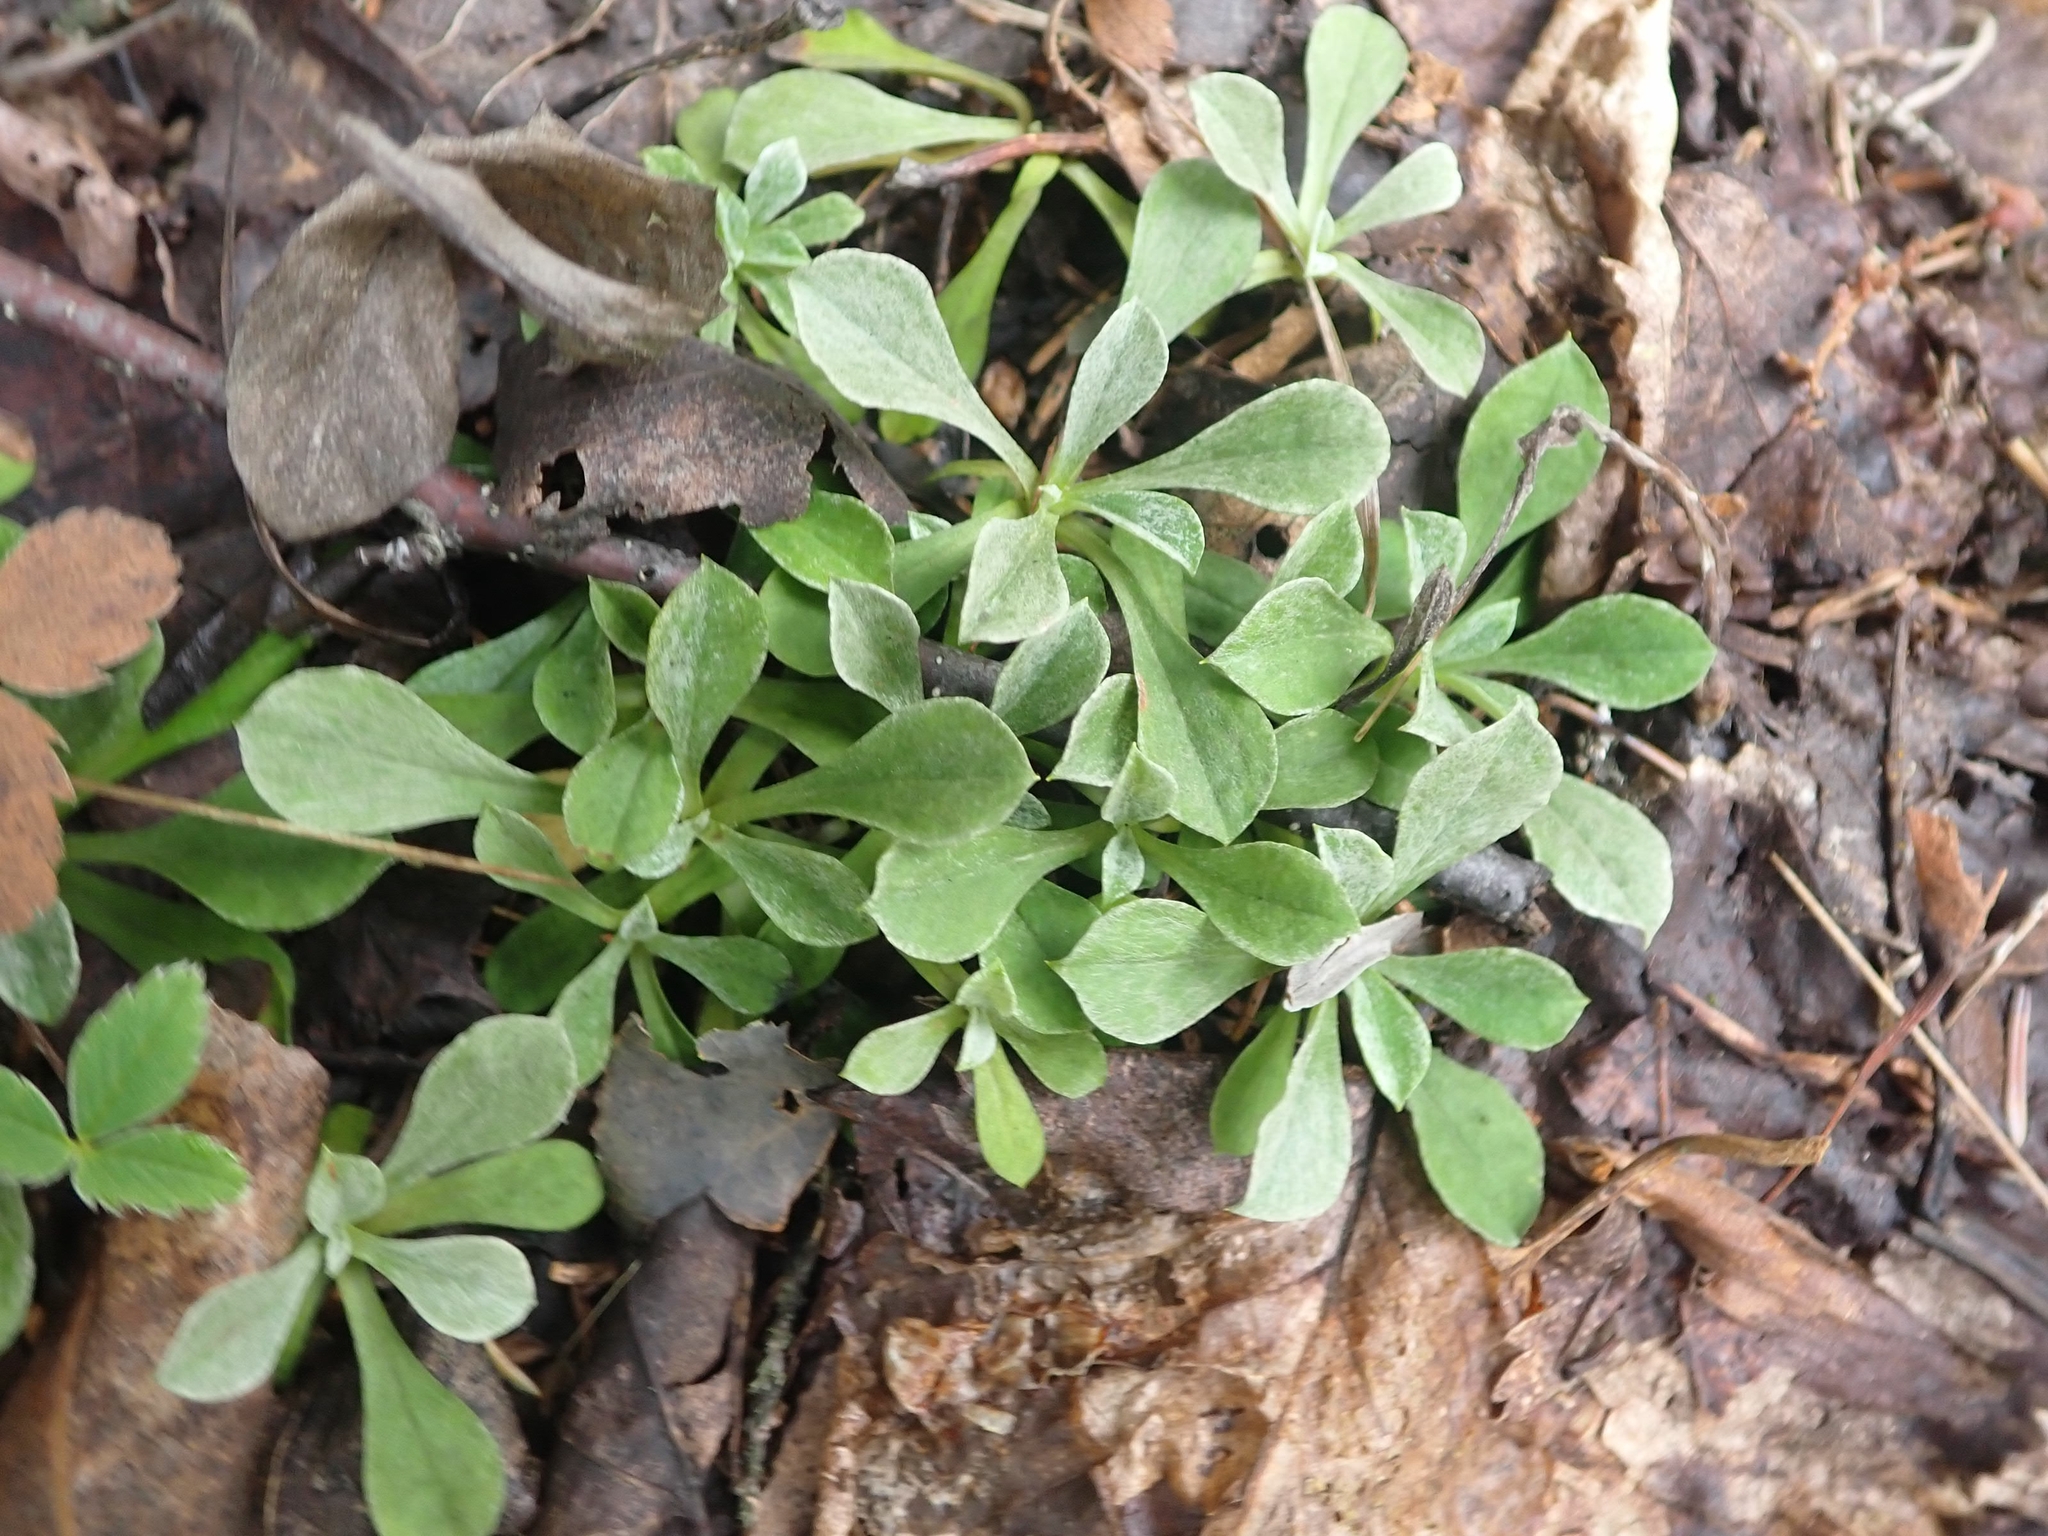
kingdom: Plantae
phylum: Tracheophyta
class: Magnoliopsida
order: Asterales
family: Asteraceae
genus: Antennaria
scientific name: Antennaria howellii
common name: Howell's pussytoes
